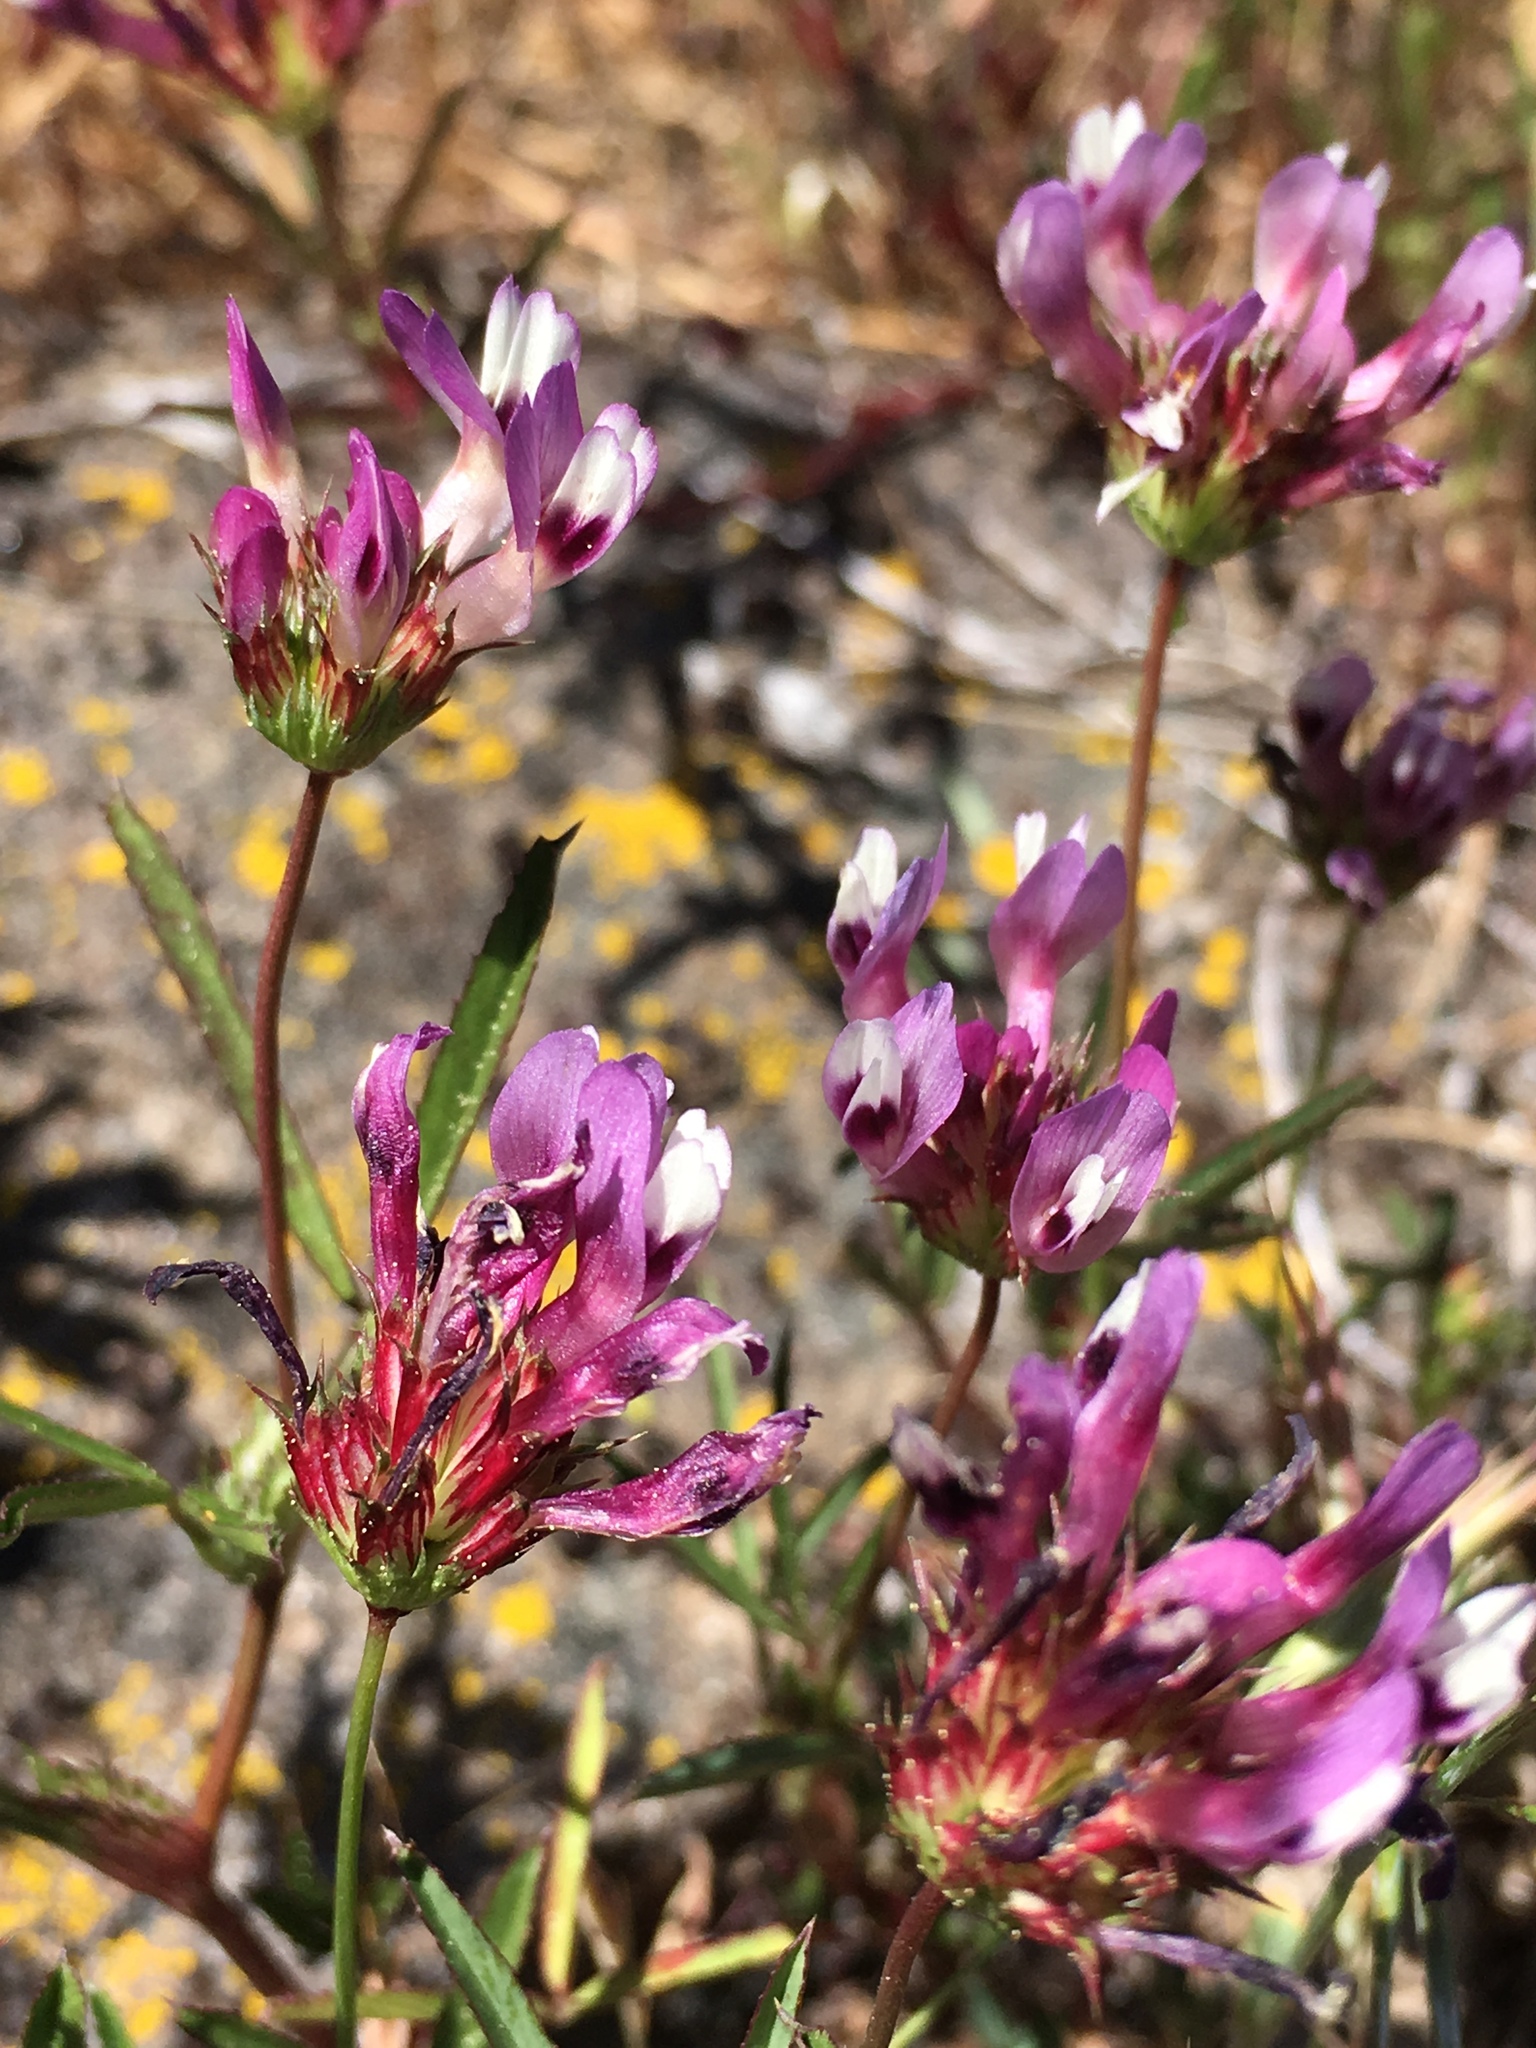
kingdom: Plantae
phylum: Tracheophyta
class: Magnoliopsida
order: Fabales
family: Fabaceae
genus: Trifolium
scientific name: Trifolium willdenovii
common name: Tomcat clover
